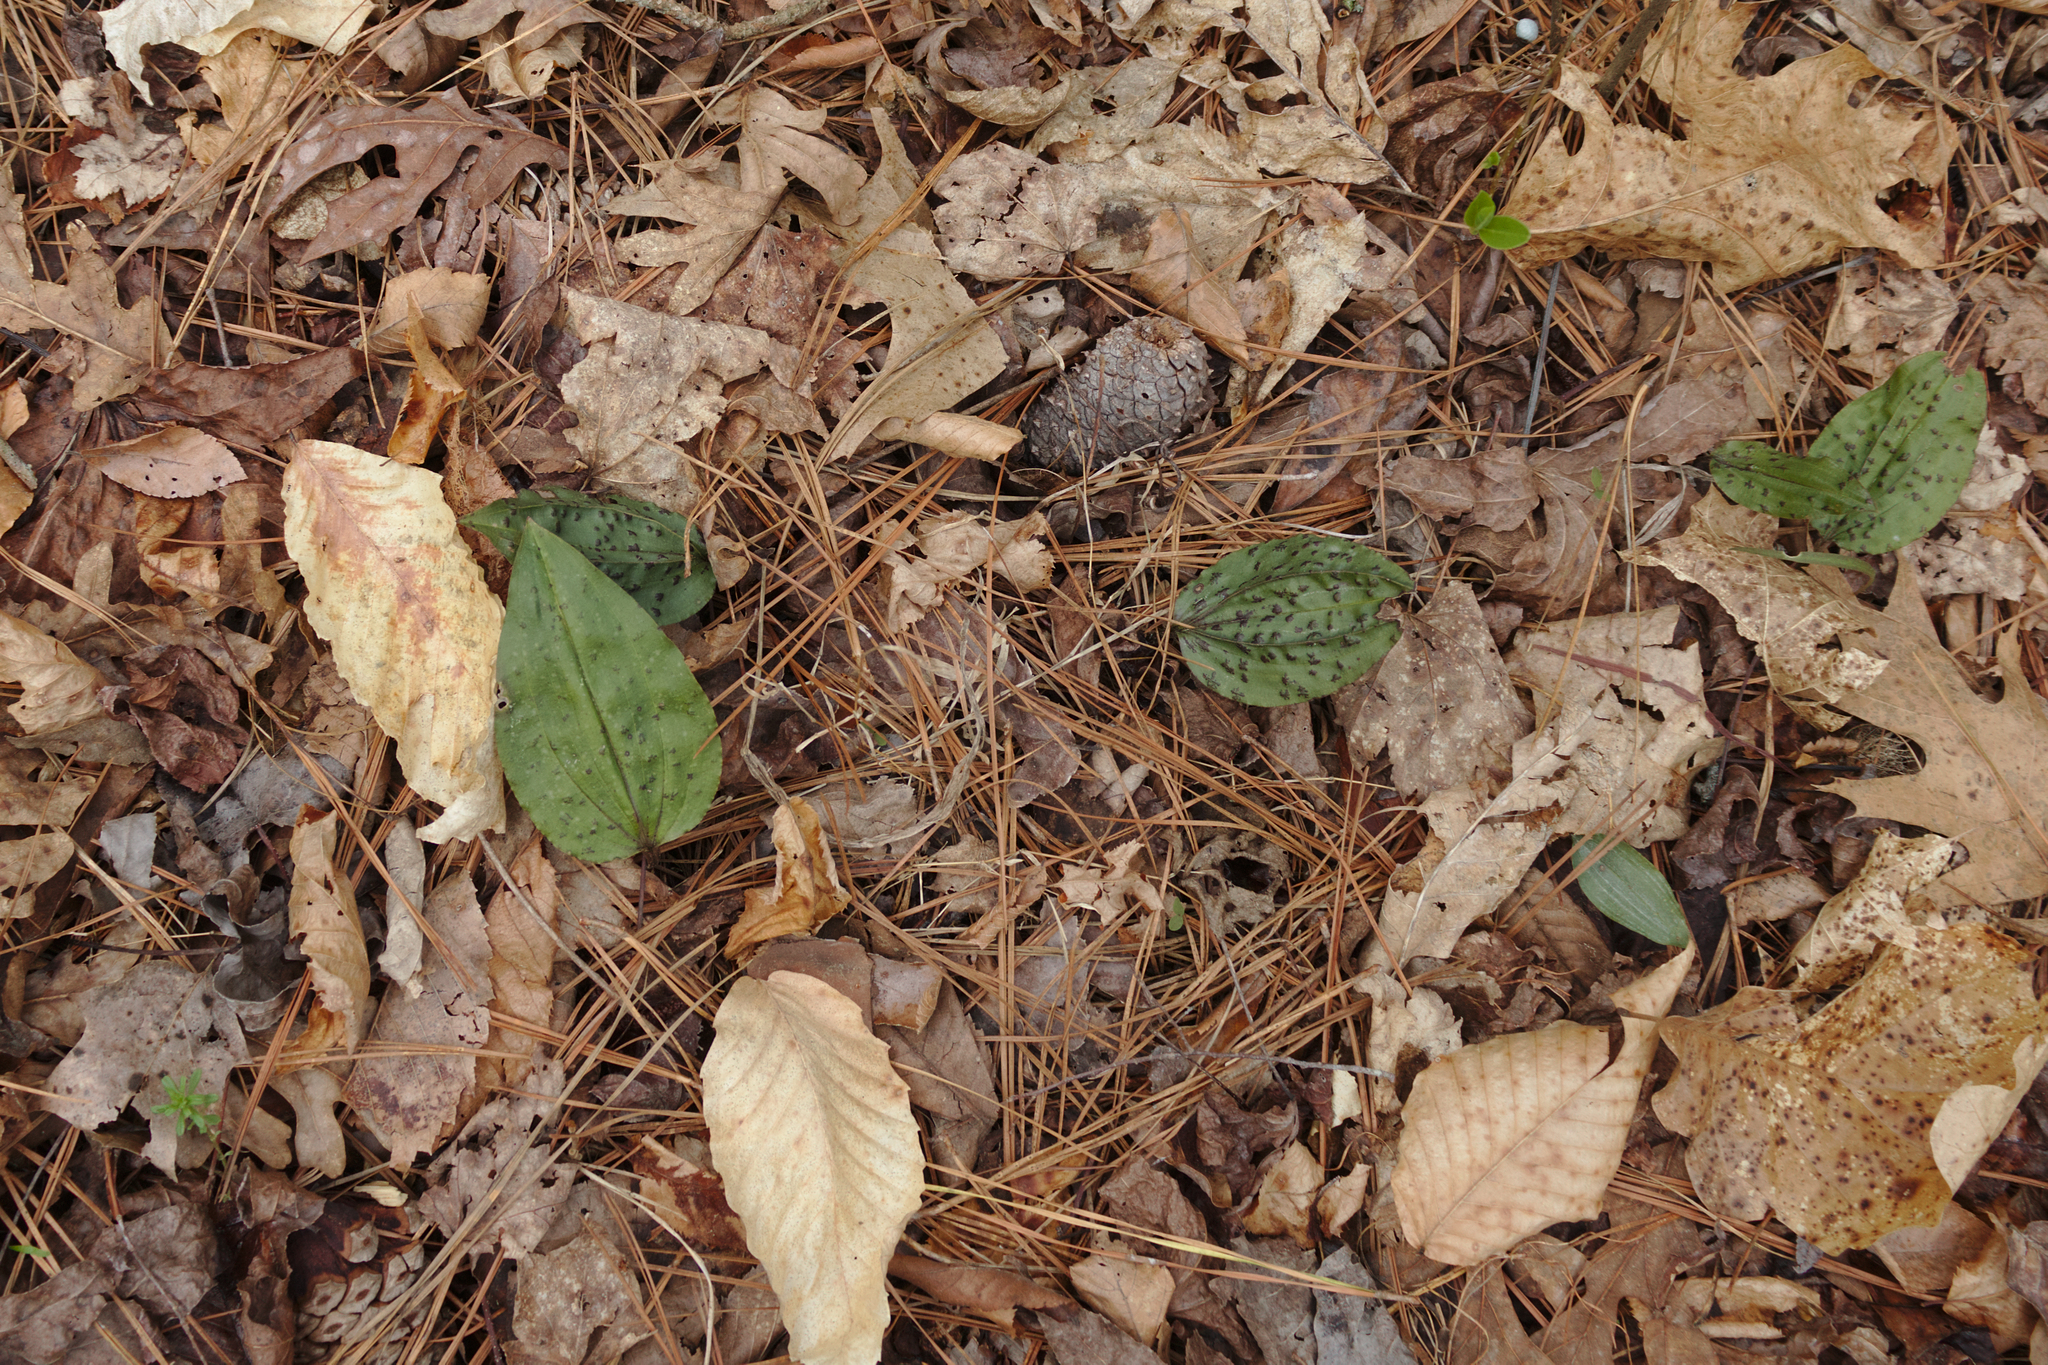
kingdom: Plantae
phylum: Tracheophyta
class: Liliopsida
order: Asparagales
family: Orchidaceae
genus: Tipularia
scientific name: Tipularia discolor
